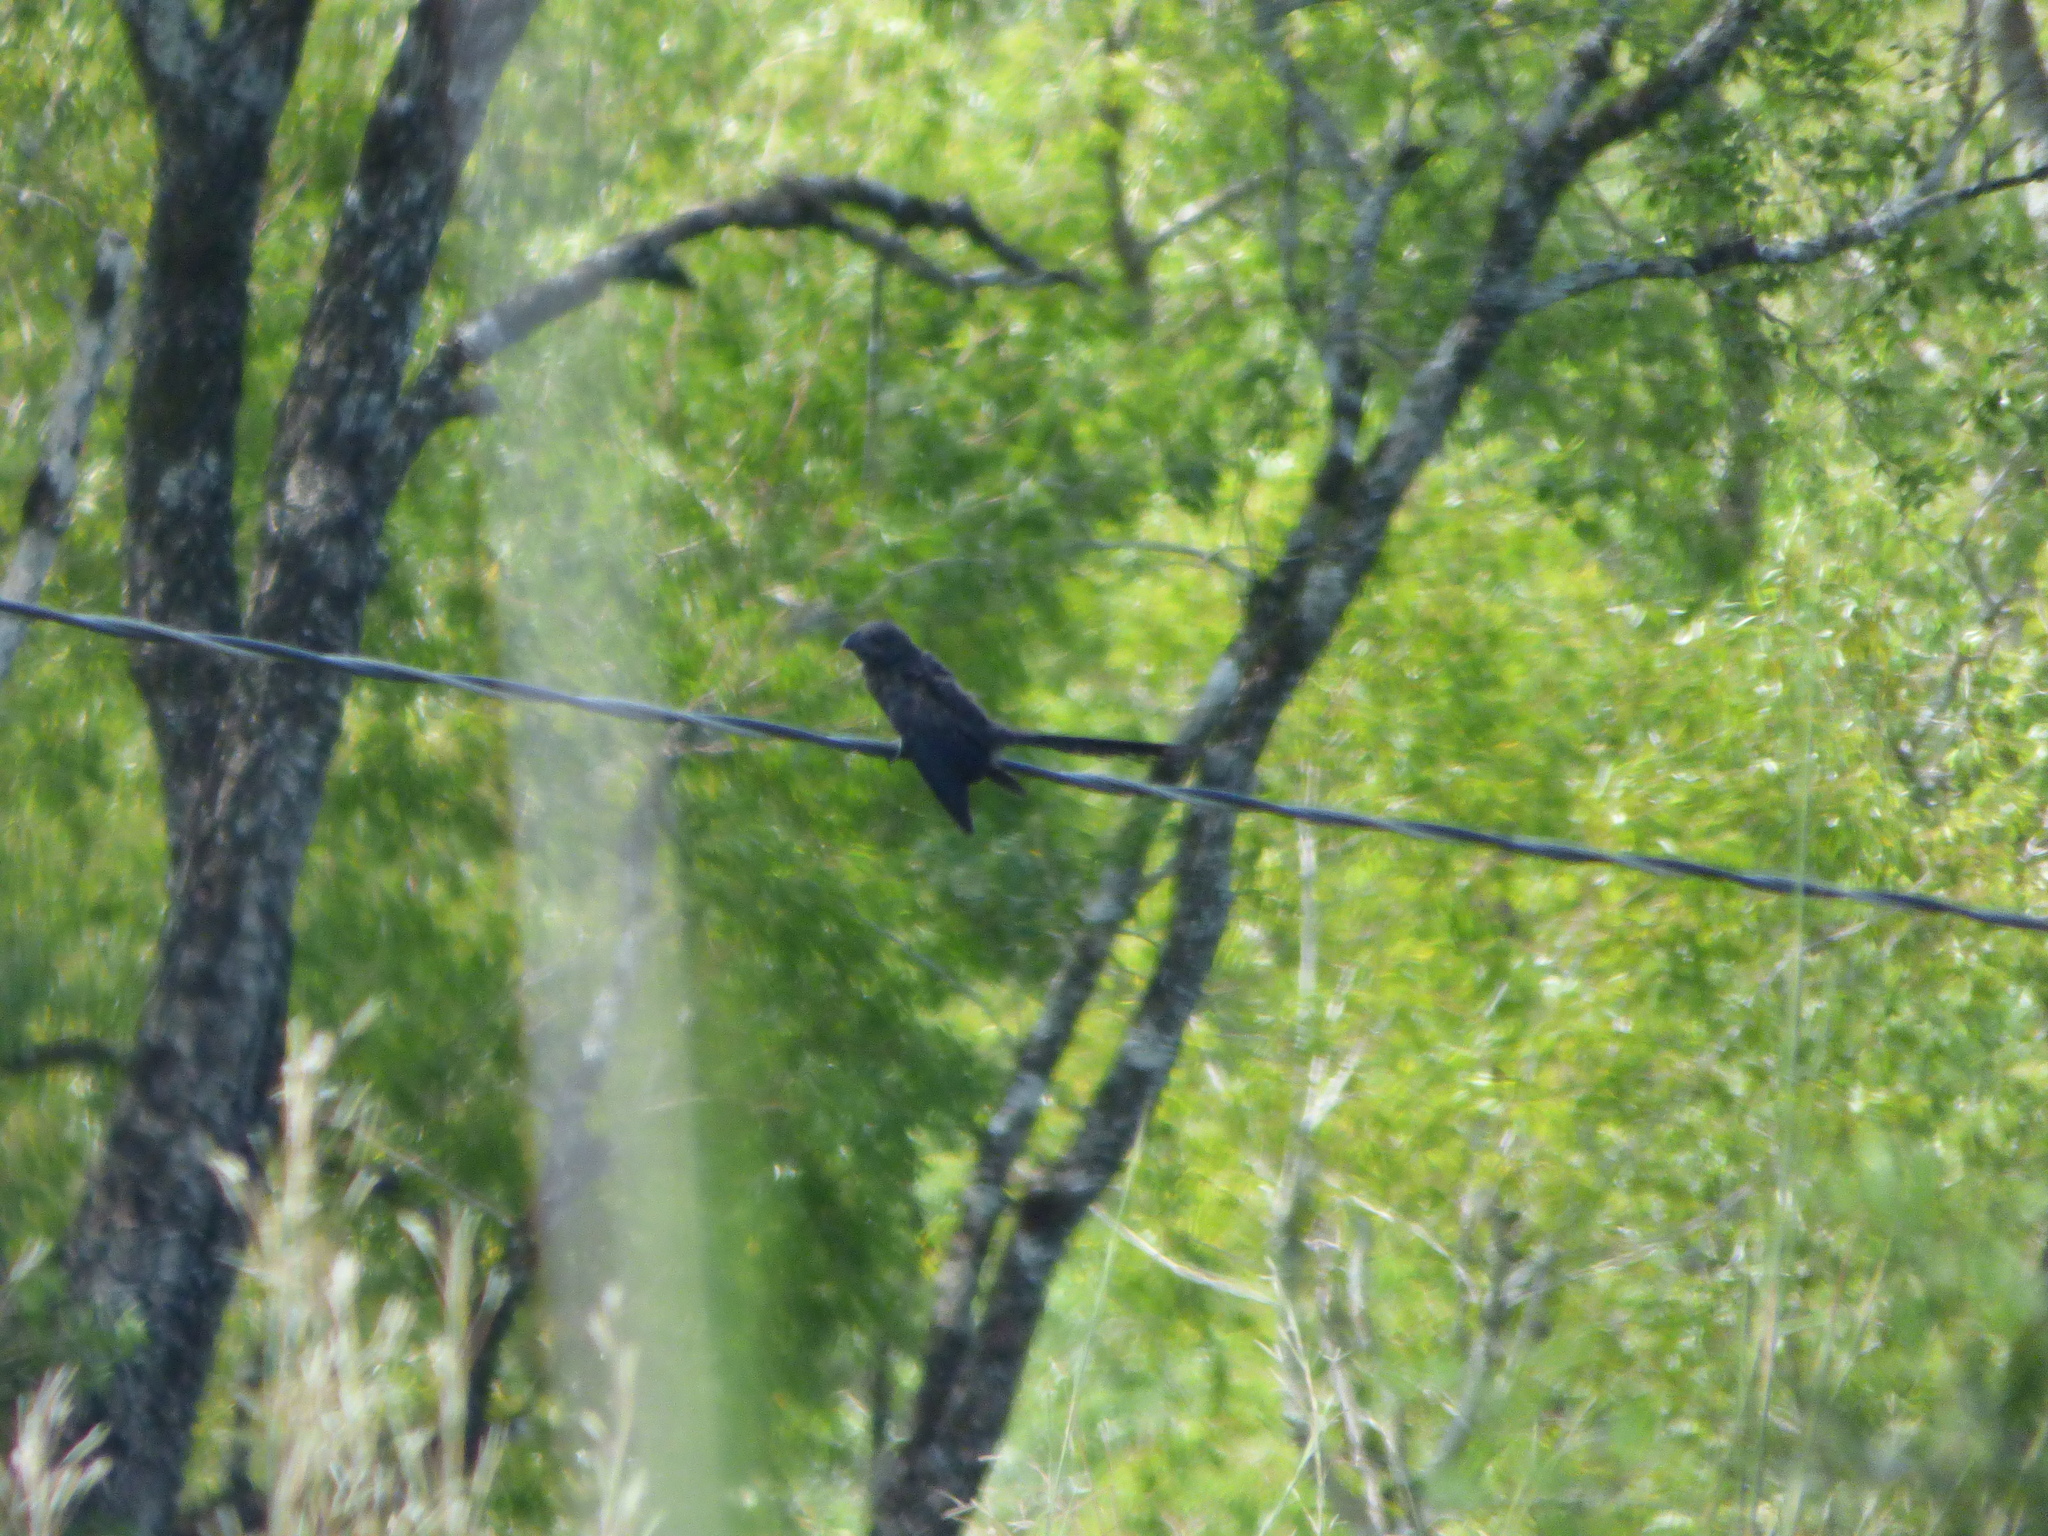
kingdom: Animalia
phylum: Chordata
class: Aves
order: Cuculiformes
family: Cuculidae
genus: Crotophaga
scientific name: Crotophaga ani
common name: Smooth-billed ani
